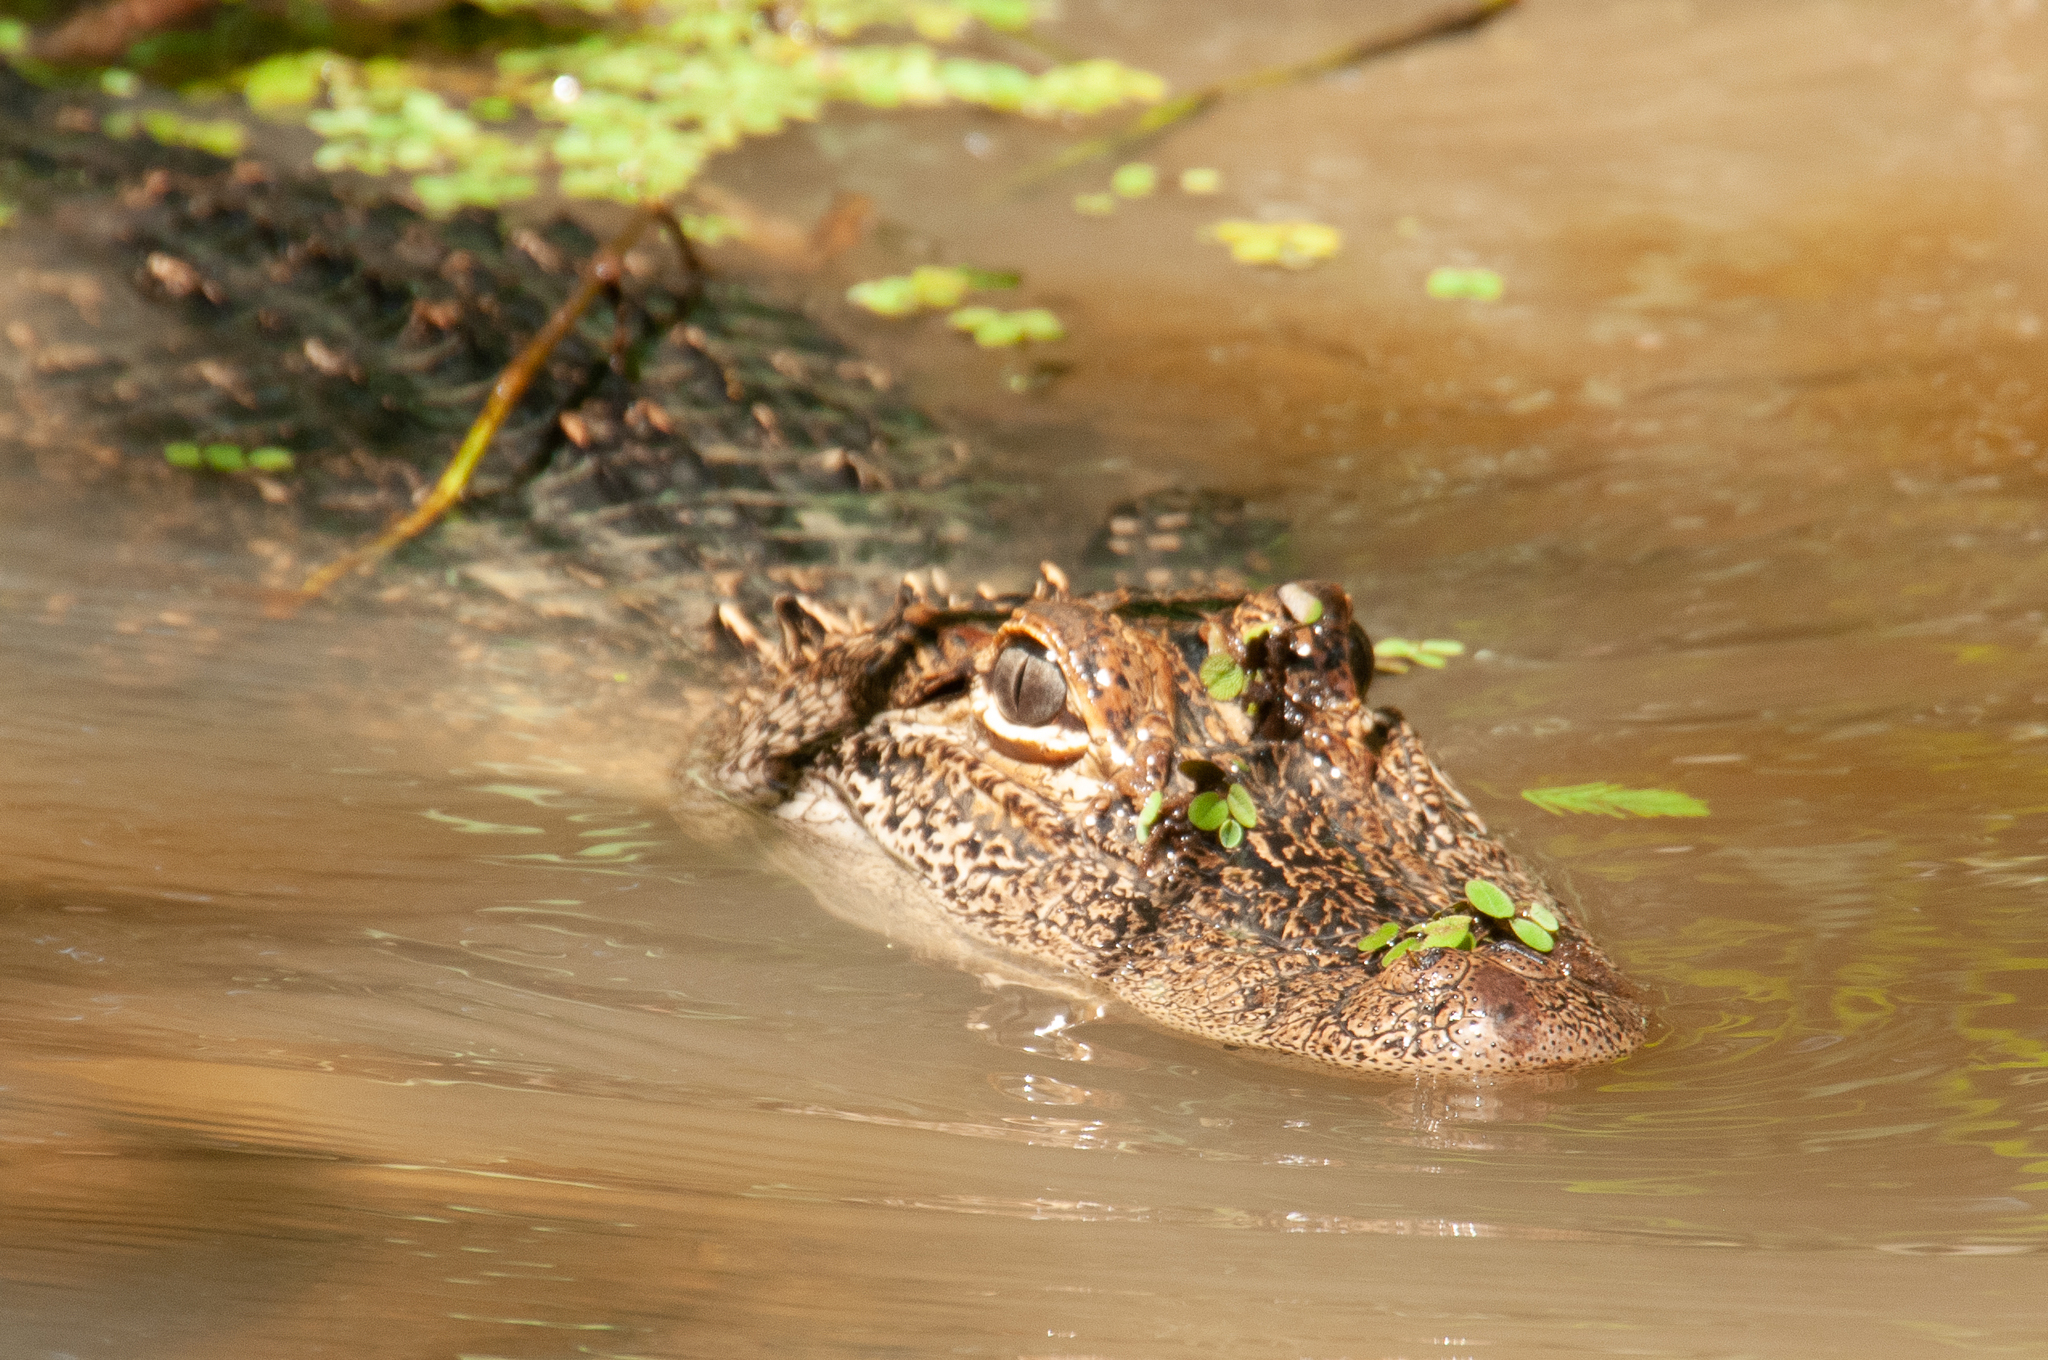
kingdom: Animalia
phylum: Chordata
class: Crocodylia
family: Alligatoridae
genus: Alligator
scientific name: Alligator mississippiensis
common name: American alligator
